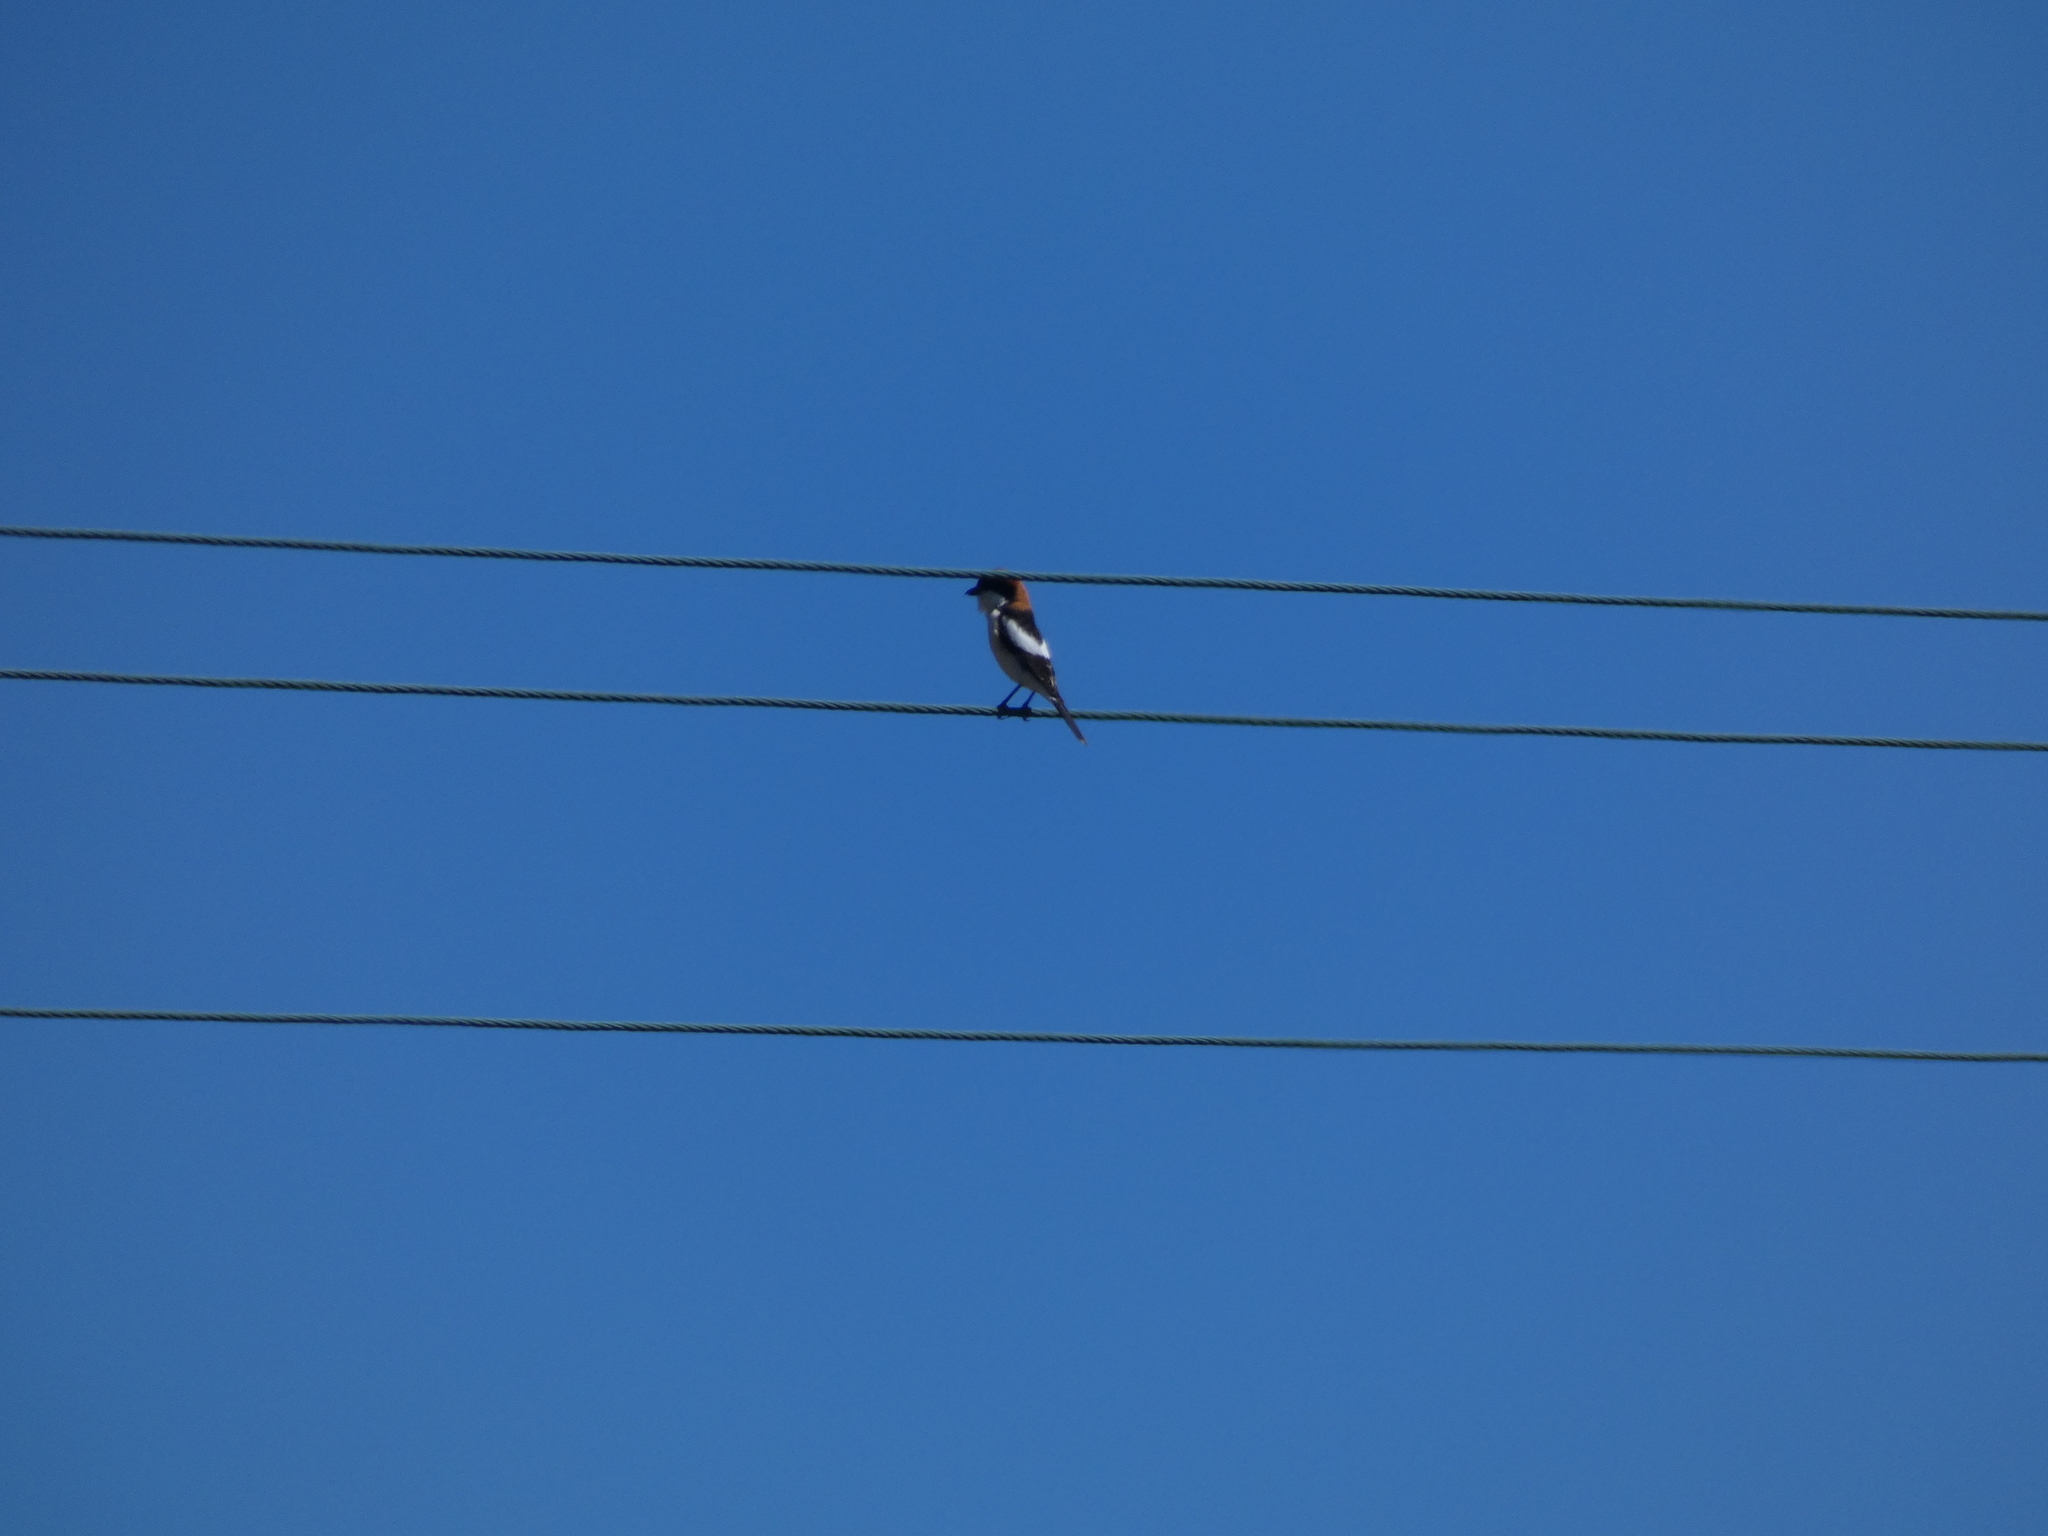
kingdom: Animalia
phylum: Chordata
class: Aves
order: Passeriformes
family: Laniidae
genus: Lanius
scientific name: Lanius senator
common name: Woodchat shrike
